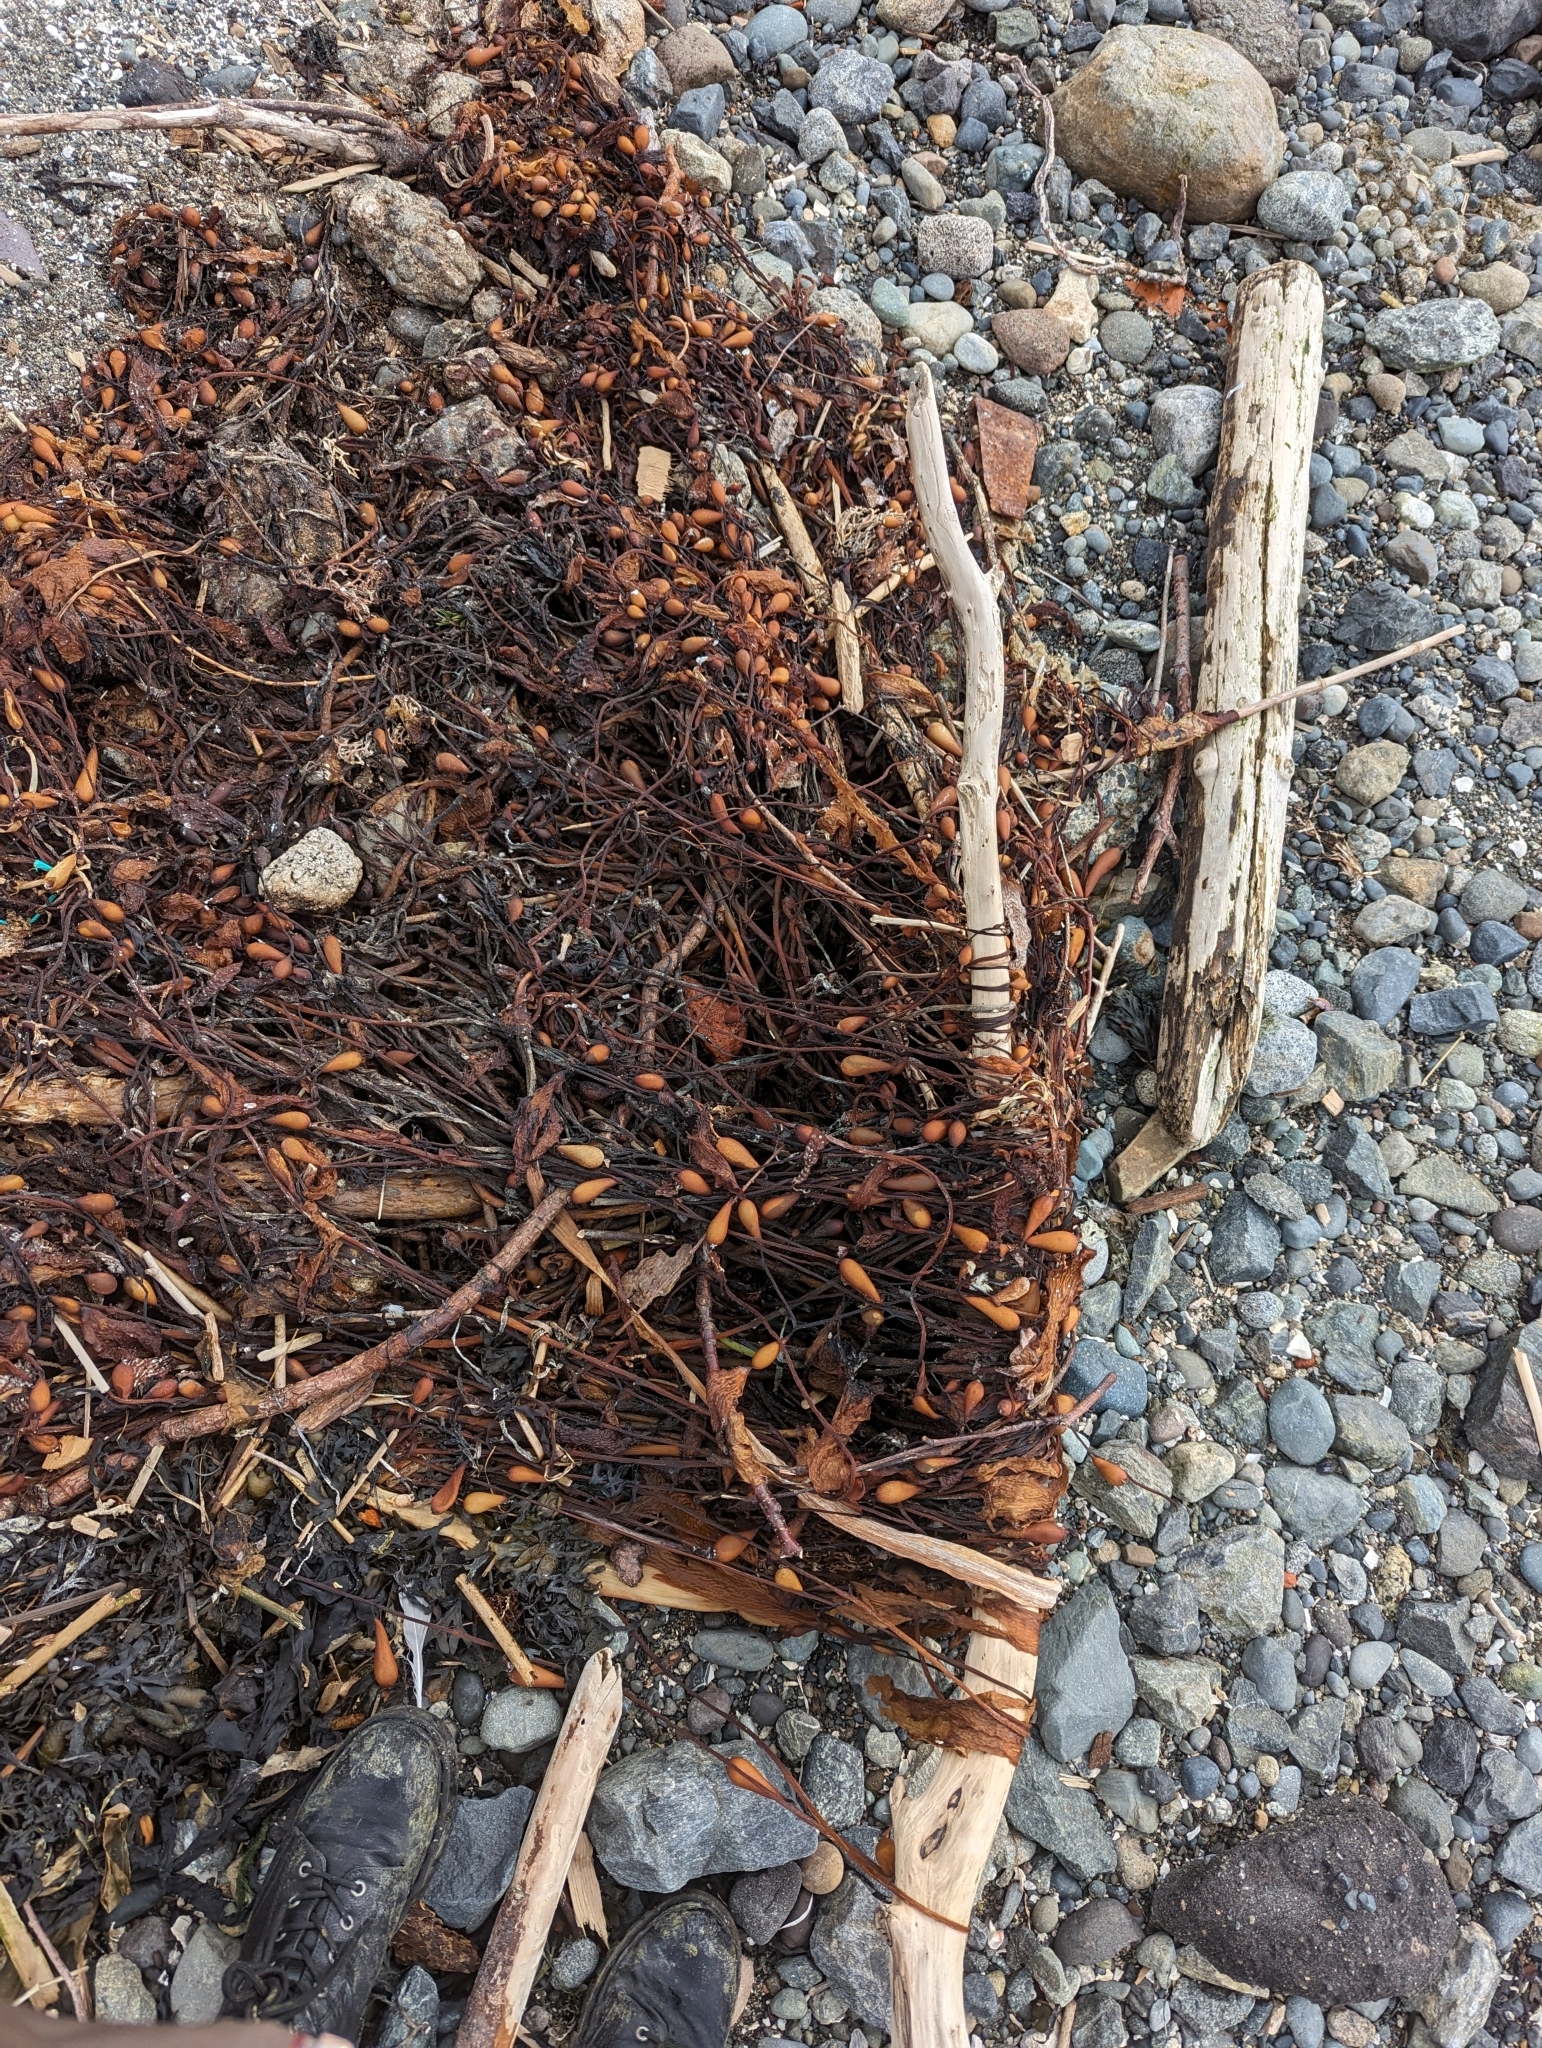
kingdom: Chromista
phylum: Ochrophyta
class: Phaeophyceae
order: Laminariales
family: Laminariaceae
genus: Macrocystis
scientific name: Macrocystis pyrifera
